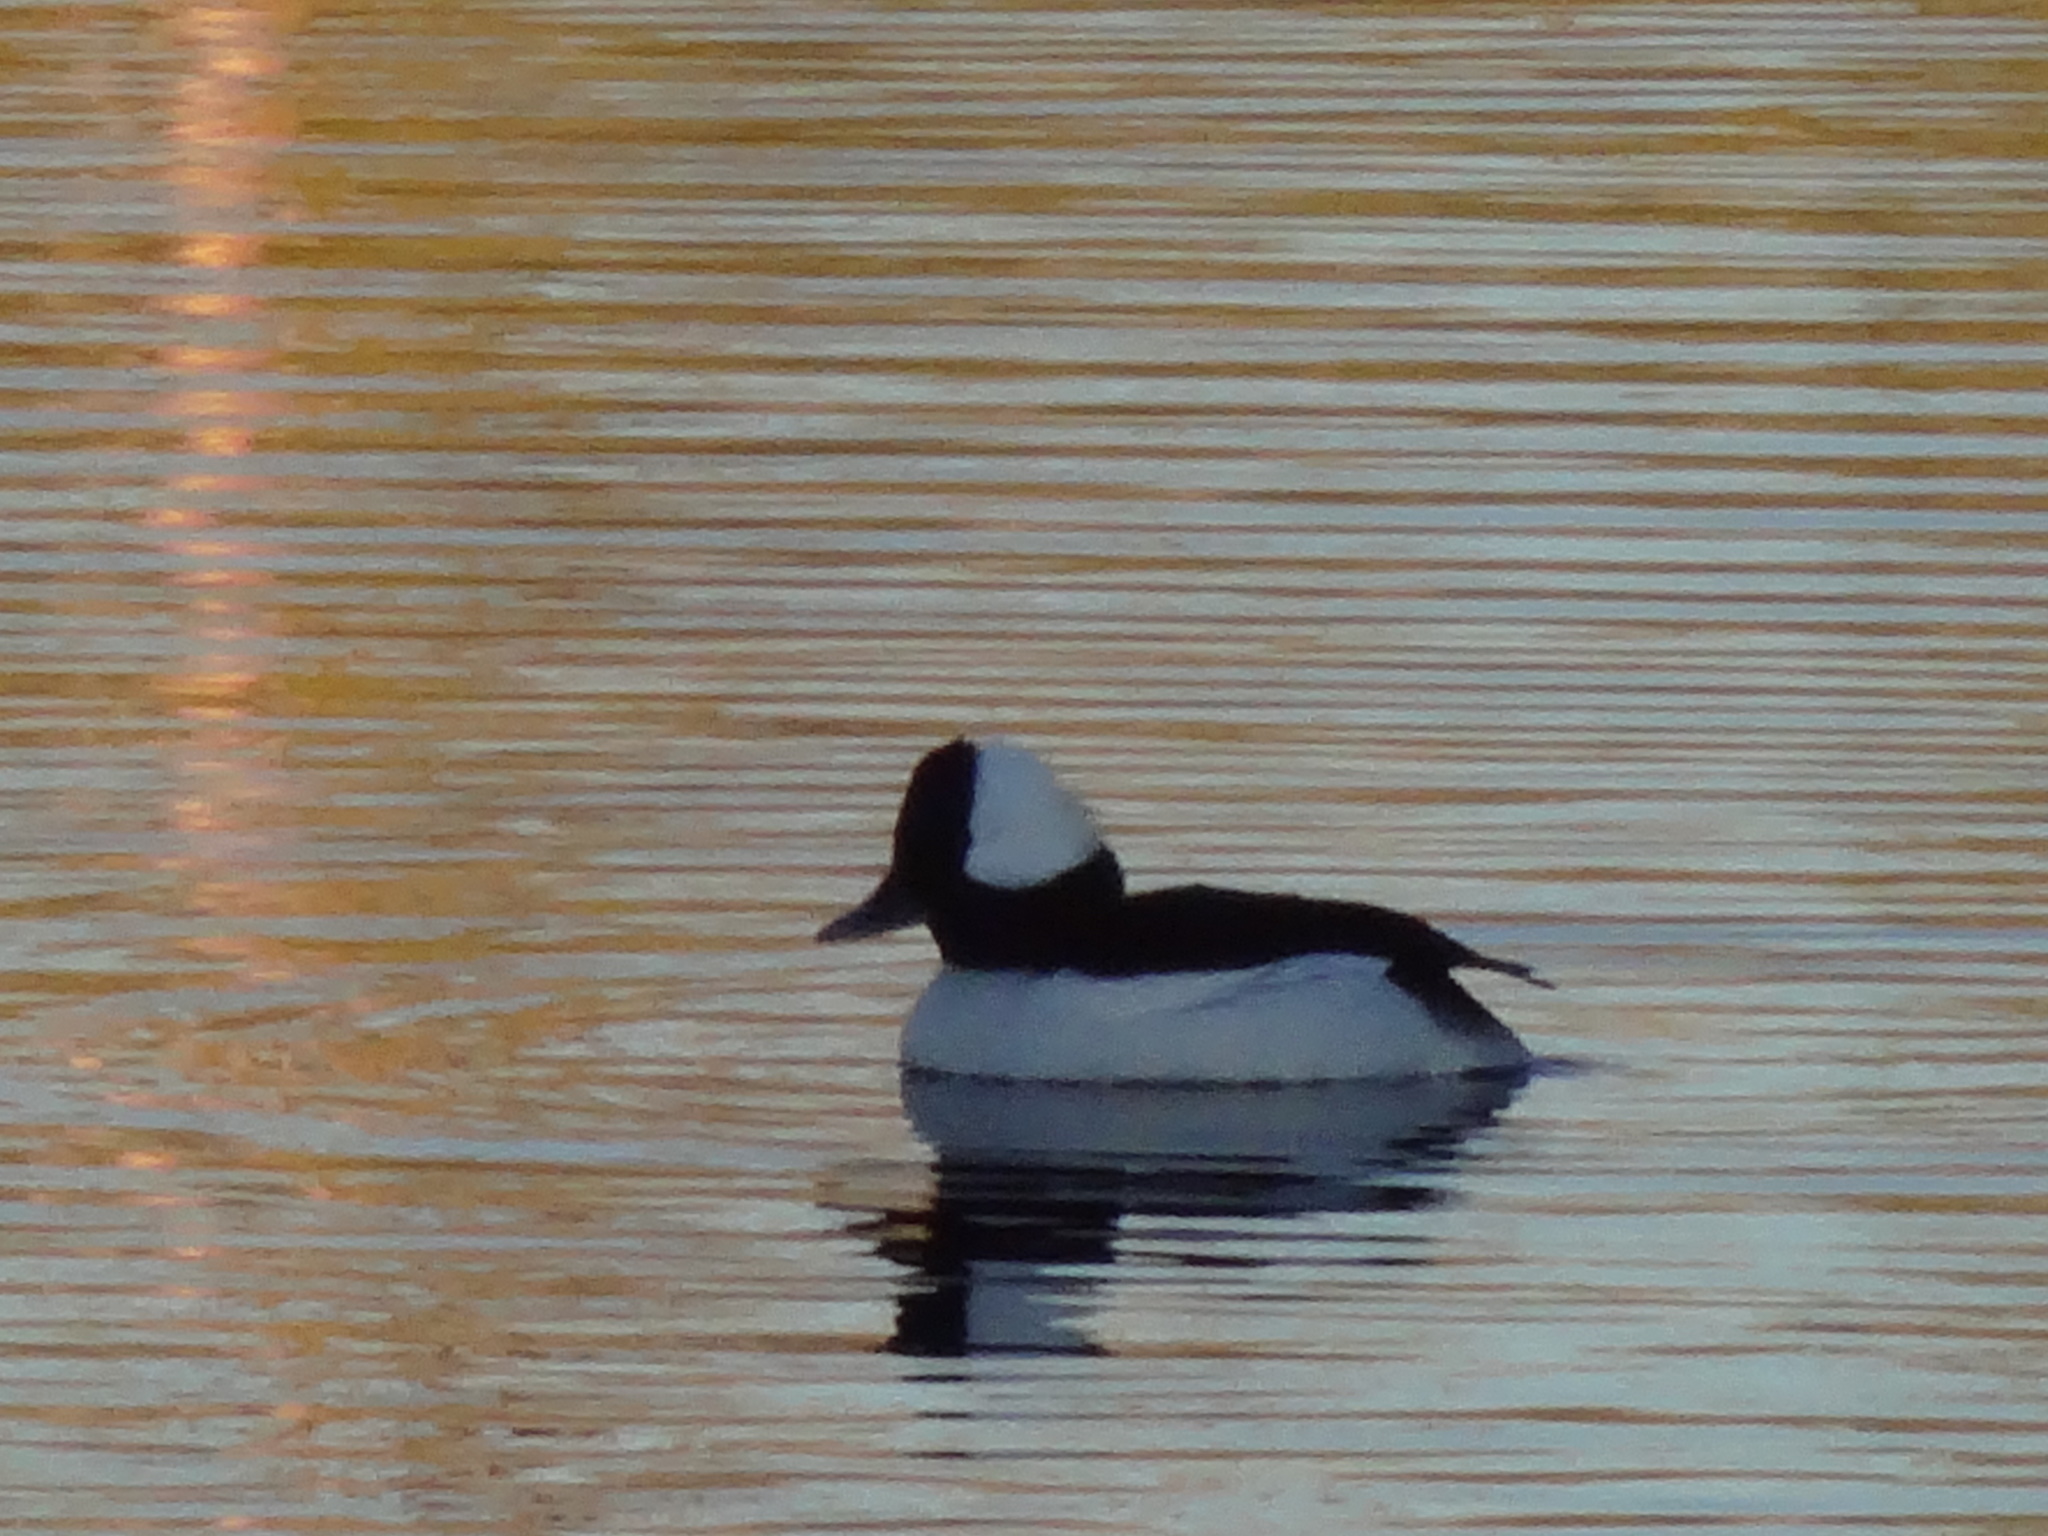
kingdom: Animalia
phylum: Chordata
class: Aves
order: Anseriformes
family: Anatidae
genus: Bucephala
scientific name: Bucephala albeola
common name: Bufflehead
